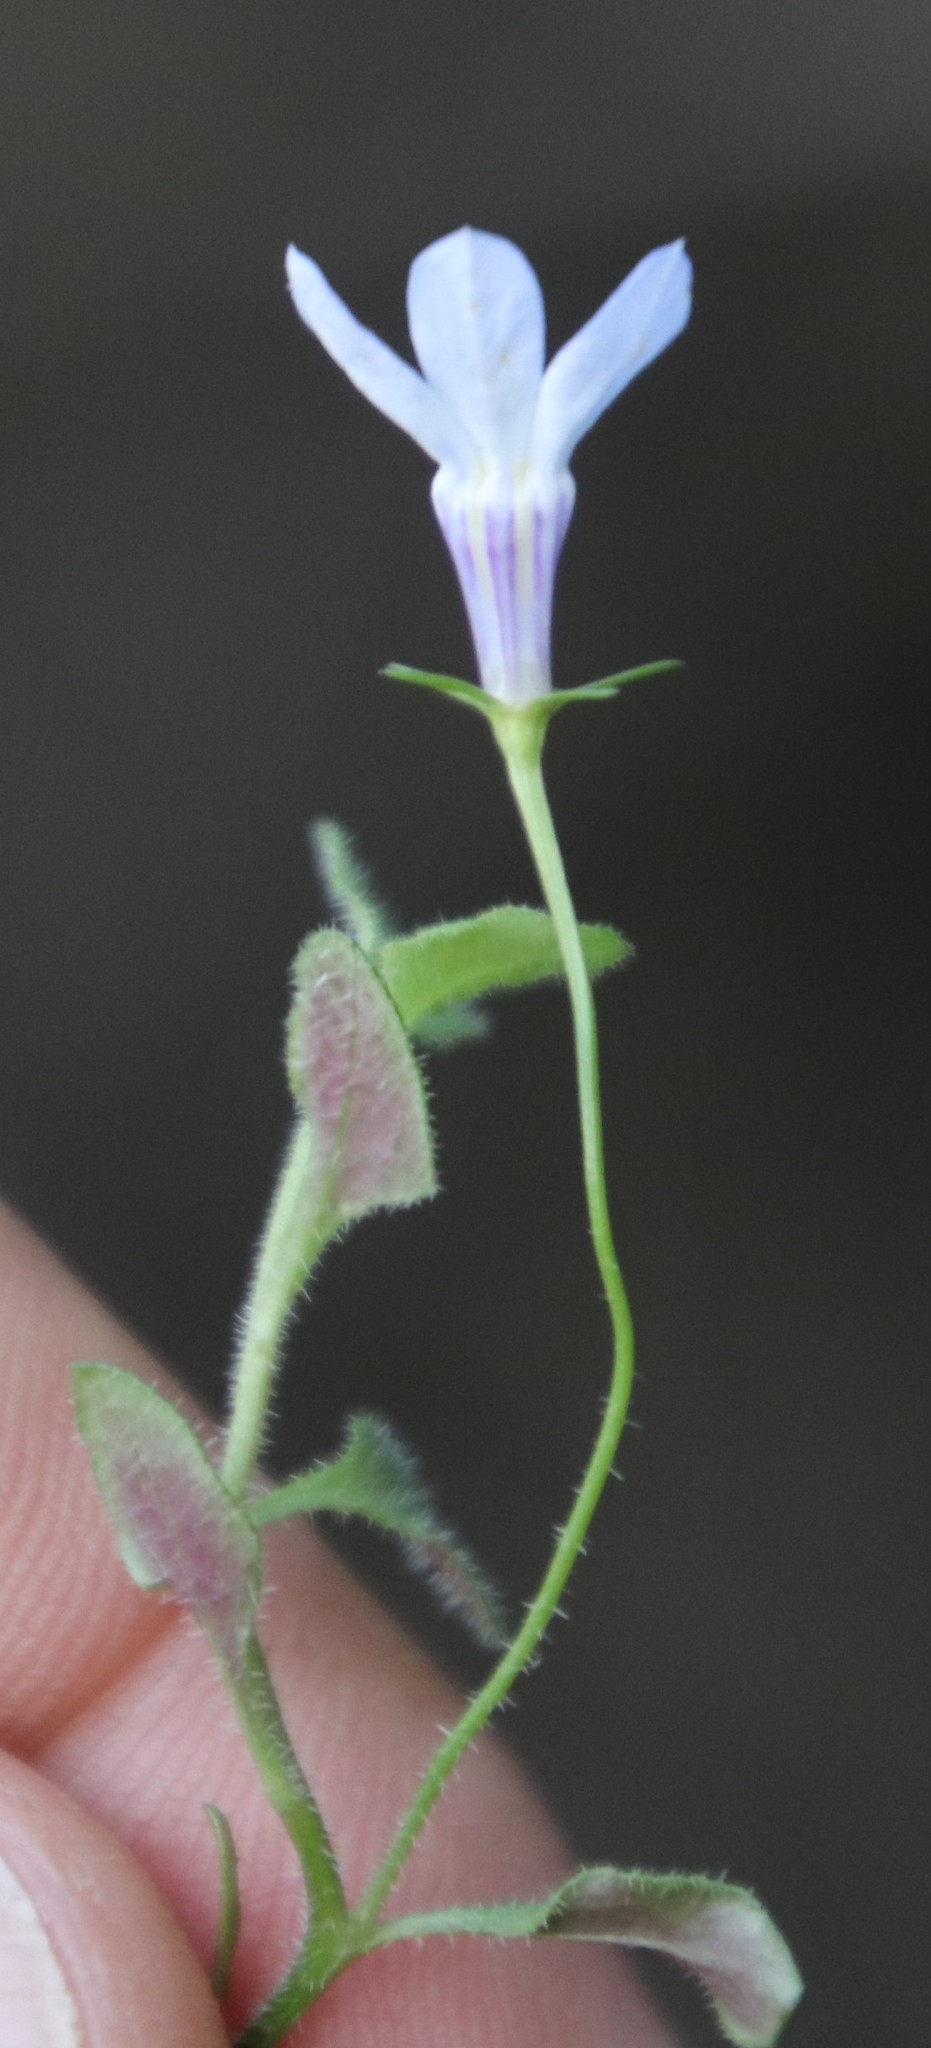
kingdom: Plantae
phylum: Tracheophyta
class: Magnoliopsida
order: Asterales
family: Campanulaceae
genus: Lobelia
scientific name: Lobelia erinus
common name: Edging lobelia
